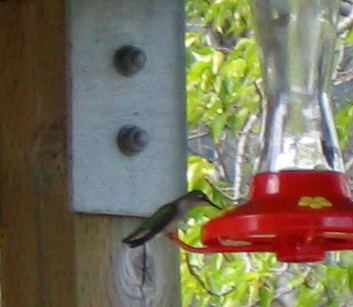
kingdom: Animalia
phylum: Chordata
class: Aves
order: Apodiformes
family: Trochilidae
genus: Archilochus
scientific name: Archilochus colubris
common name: Ruby-throated hummingbird
